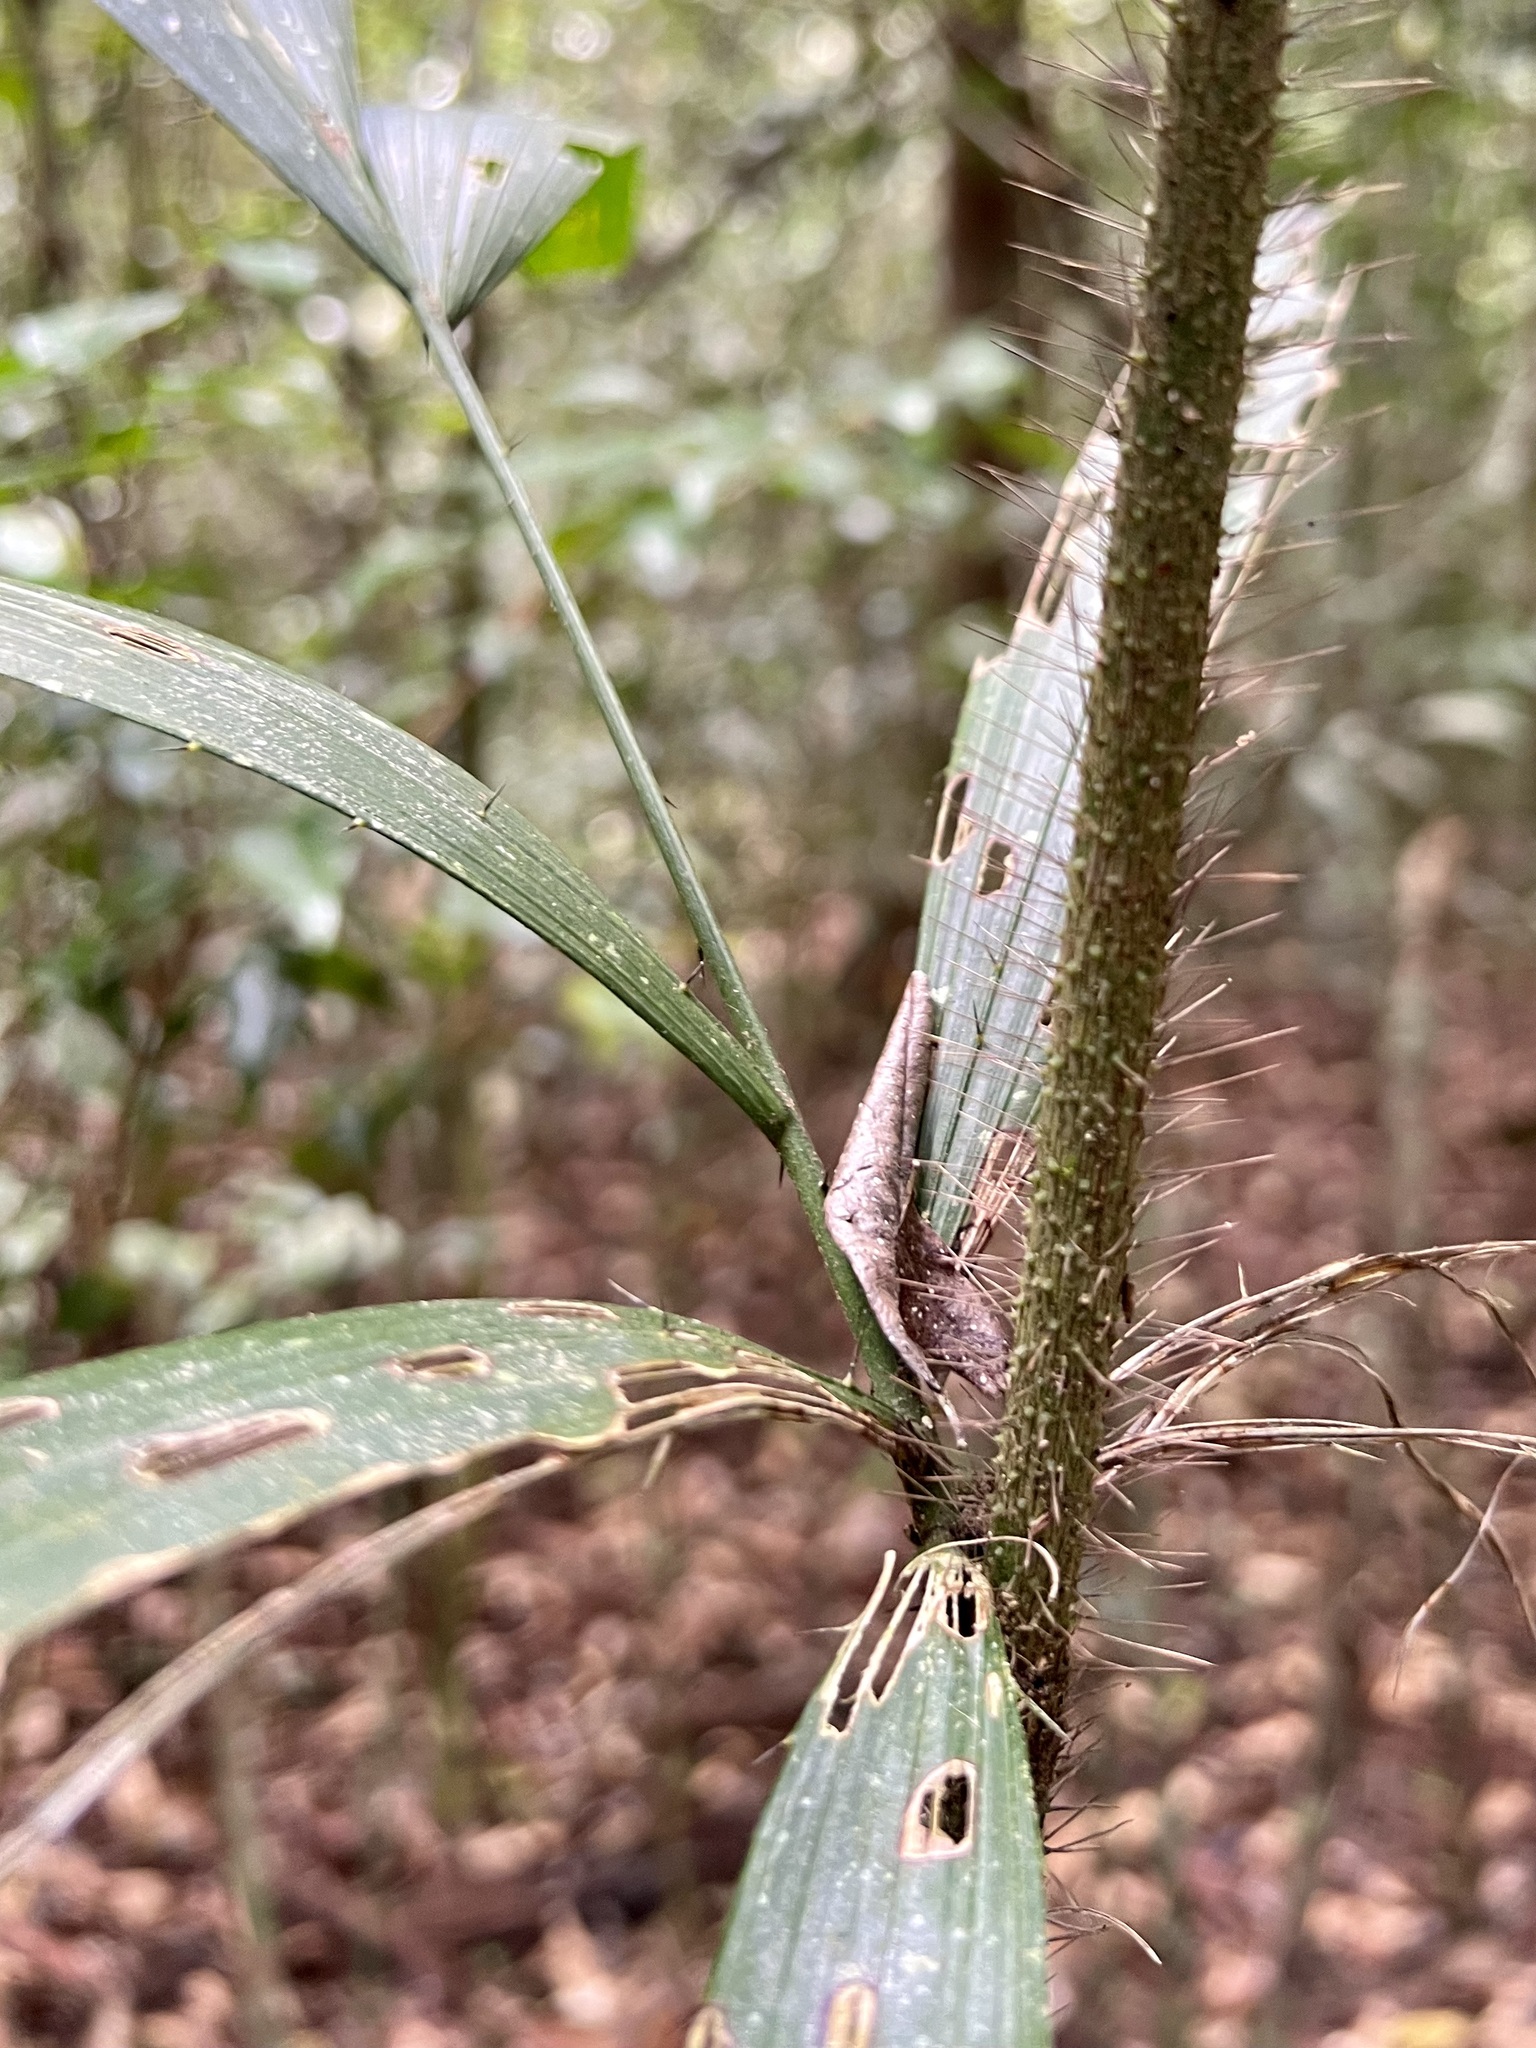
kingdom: Plantae
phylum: Tracheophyta
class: Liliopsida
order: Arecales
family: Arecaceae
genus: Calamus
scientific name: Calamus caryotoides
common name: Fishtail lawyer cane
